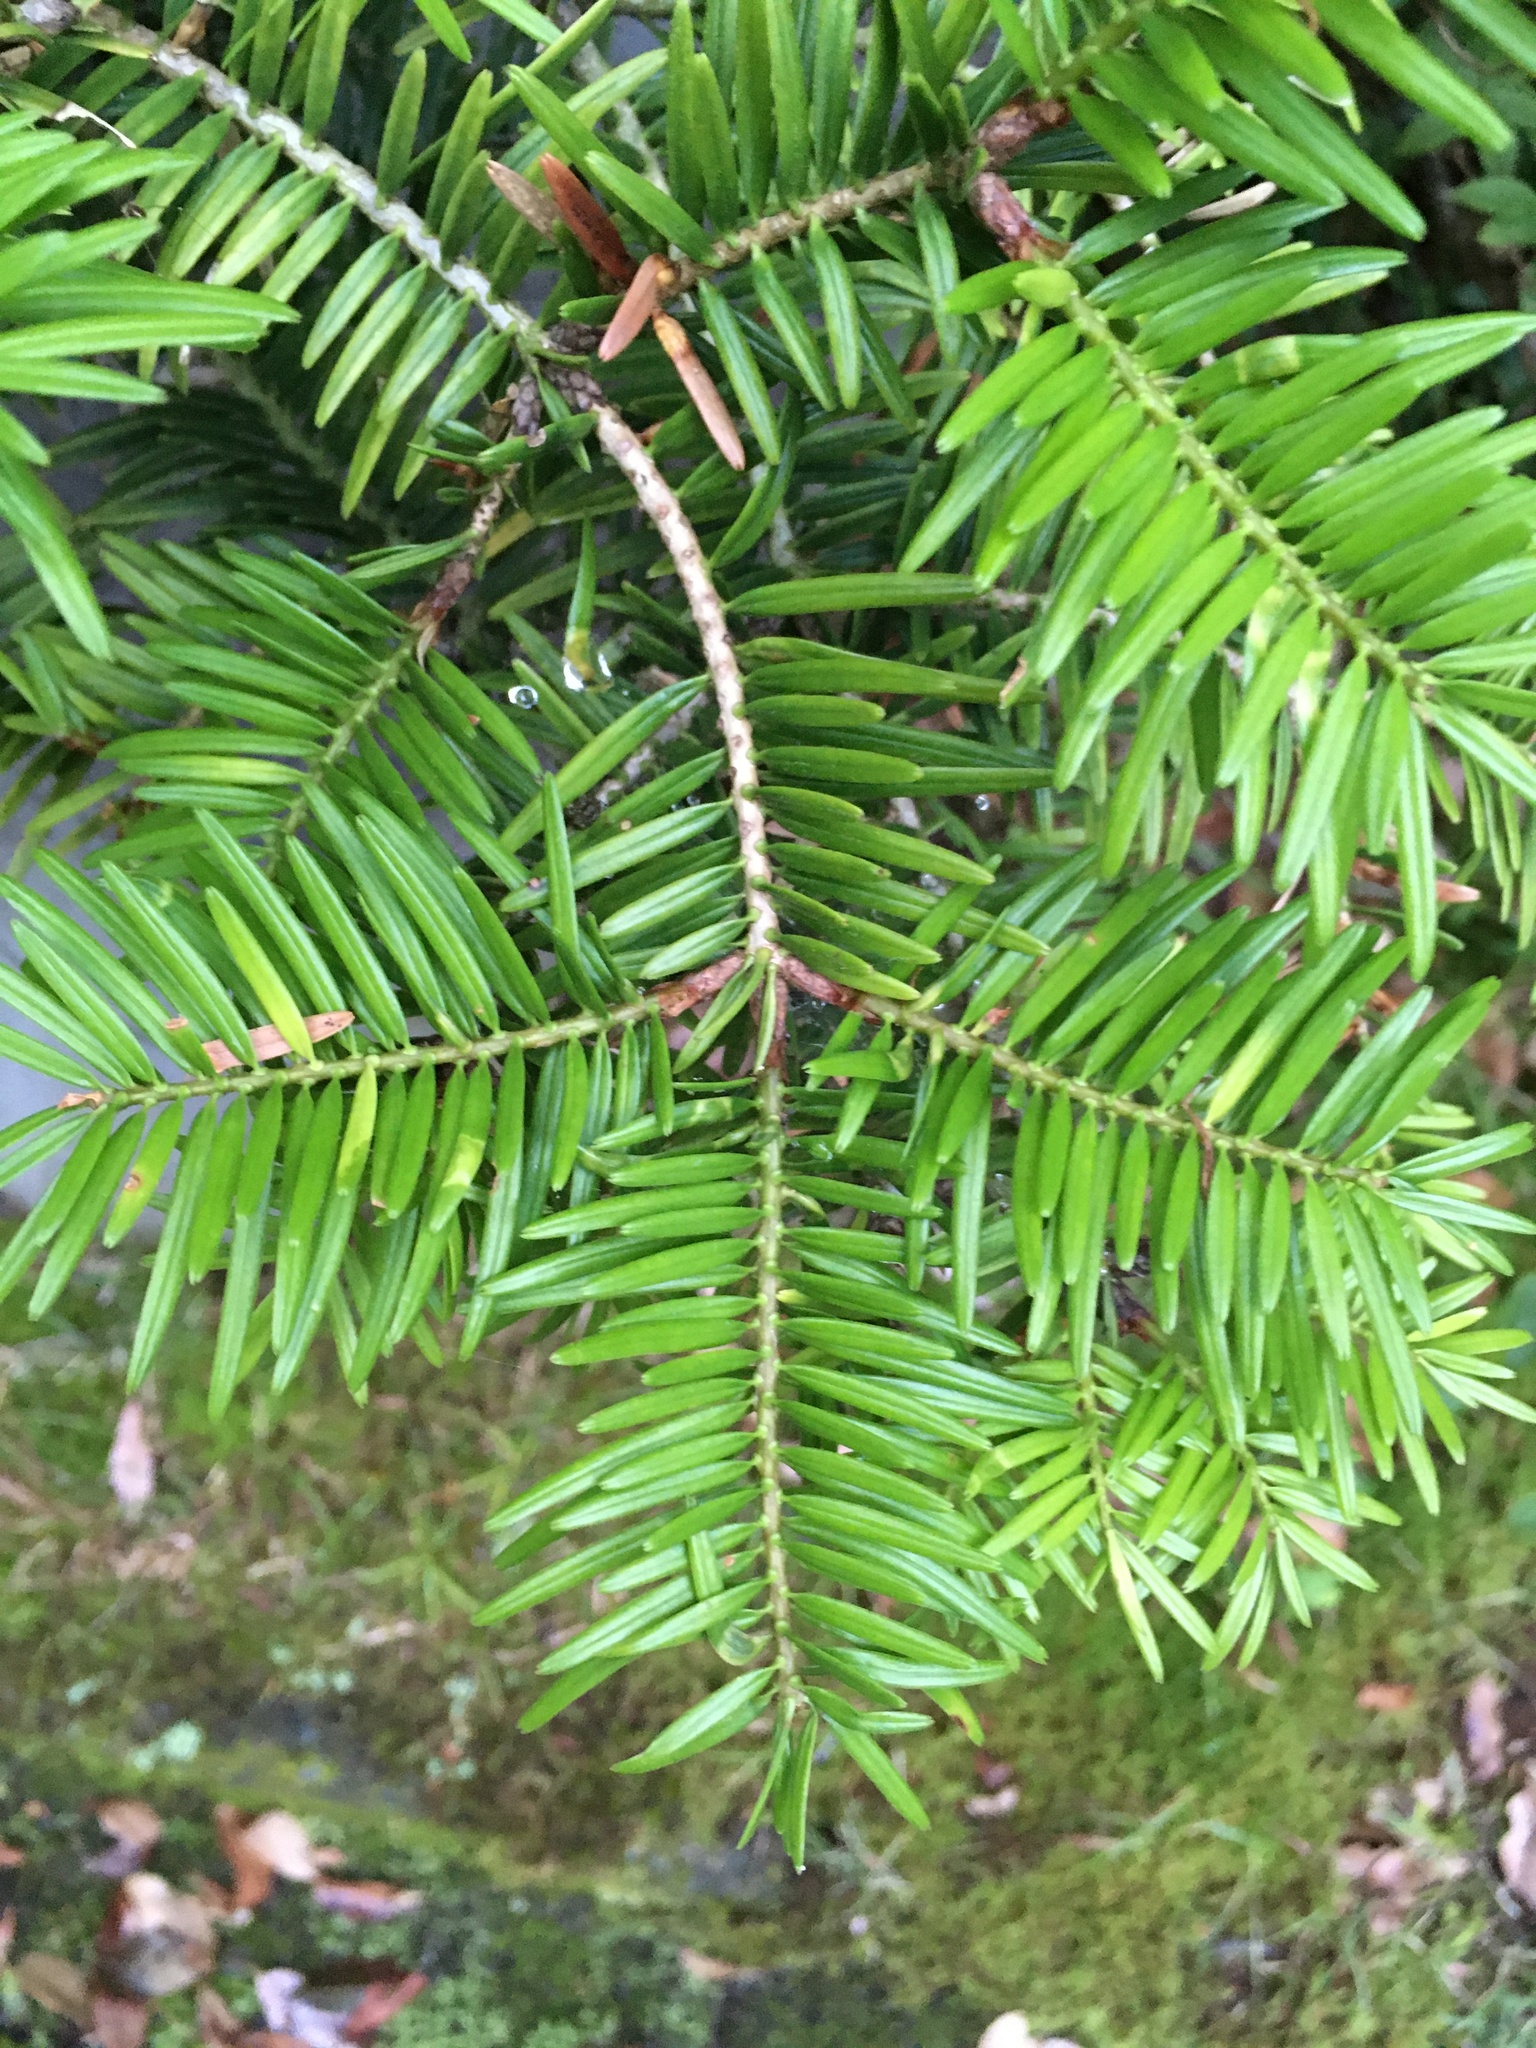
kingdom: Plantae
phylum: Tracheophyta
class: Pinopsida
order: Pinales
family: Pinaceae
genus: Abies
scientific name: Abies firma
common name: Momi fir
